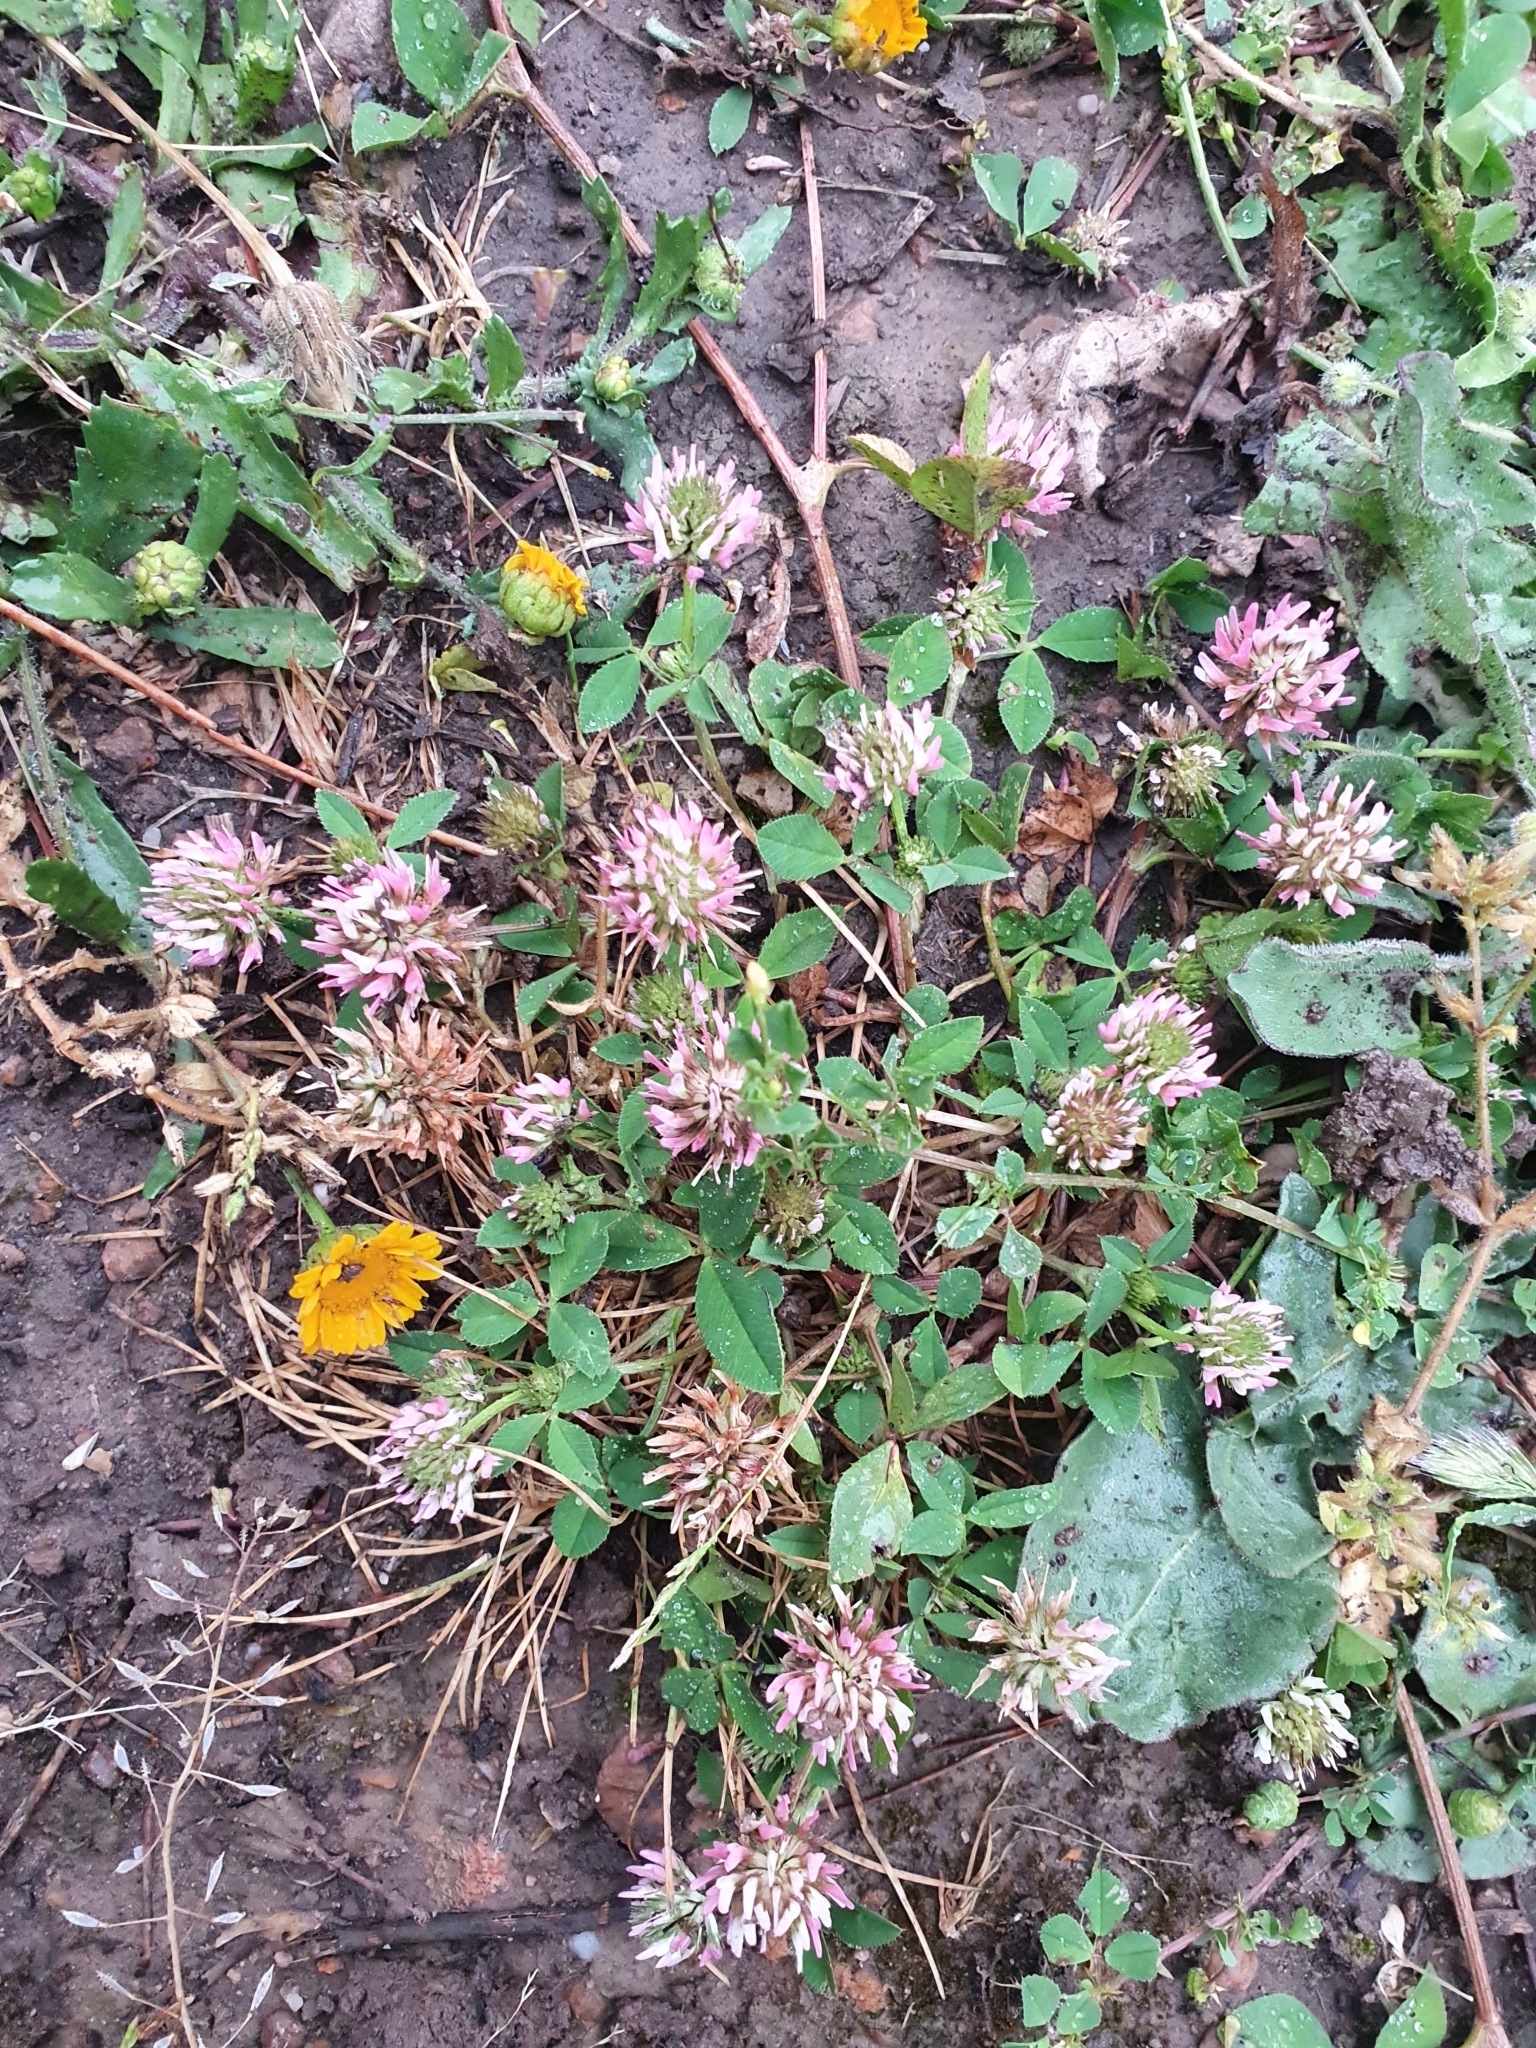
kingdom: Plantae
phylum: Tracheophyta
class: Magnoliopsida
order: Fabales
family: Fabaceae
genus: Trifolium
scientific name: Trifolium nigrescens
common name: Small white clover
